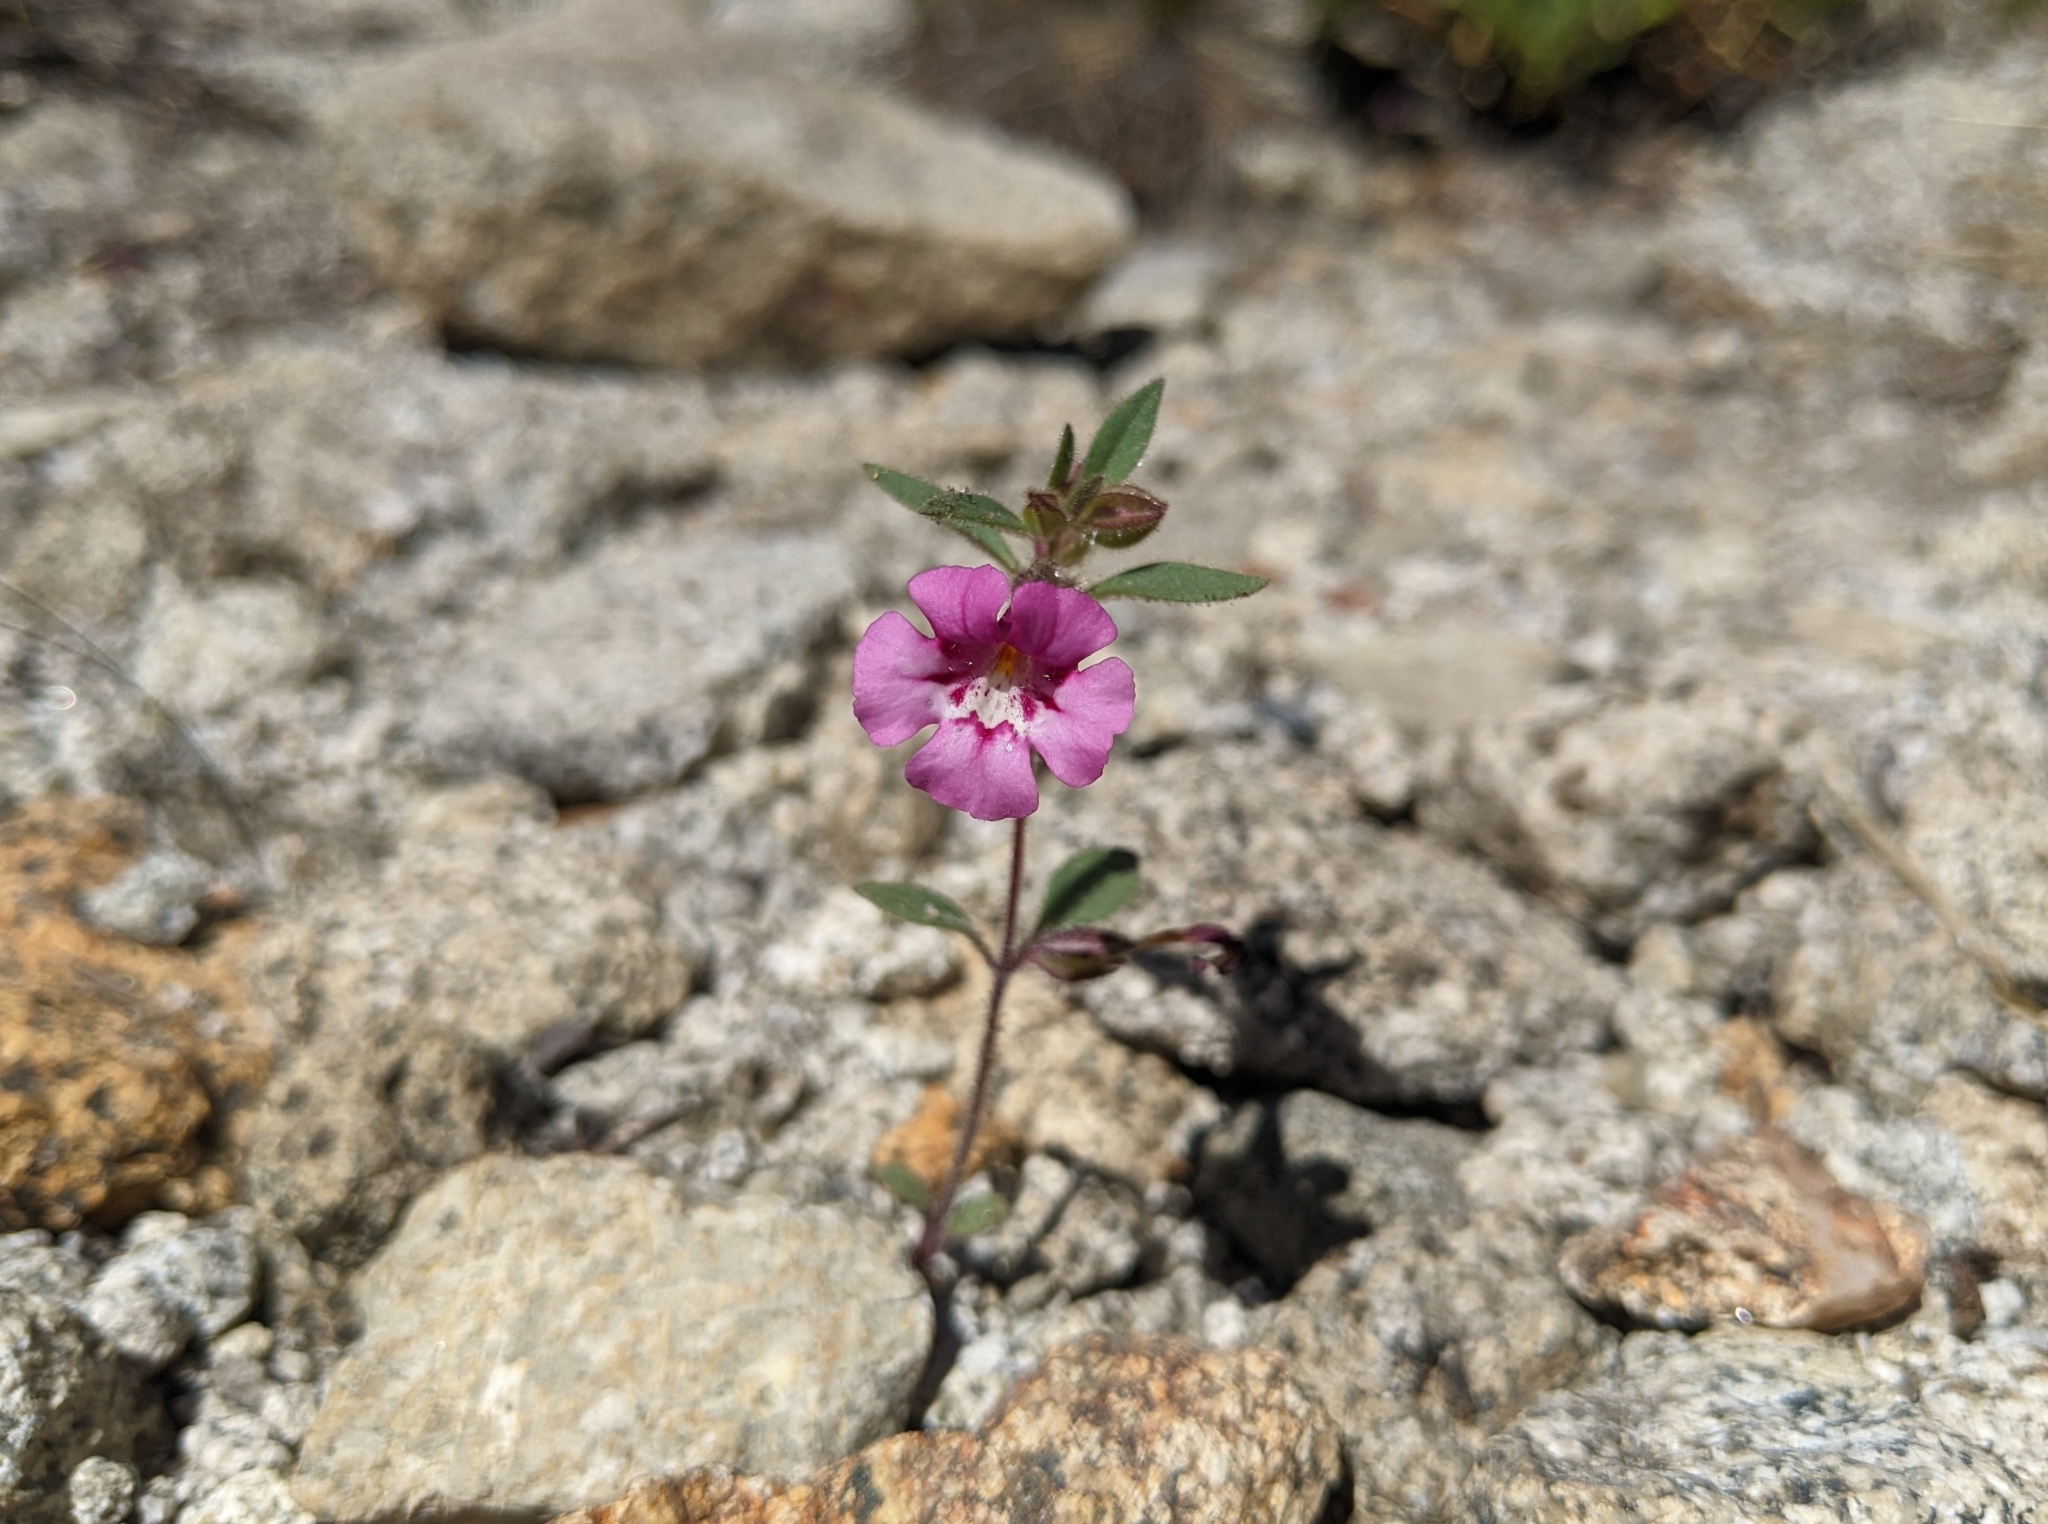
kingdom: Plantae
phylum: Tracheophyta
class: Magnoliopsida
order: Lamiales
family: Phrymaceae
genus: Diplacus
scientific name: Diplacus layneae
